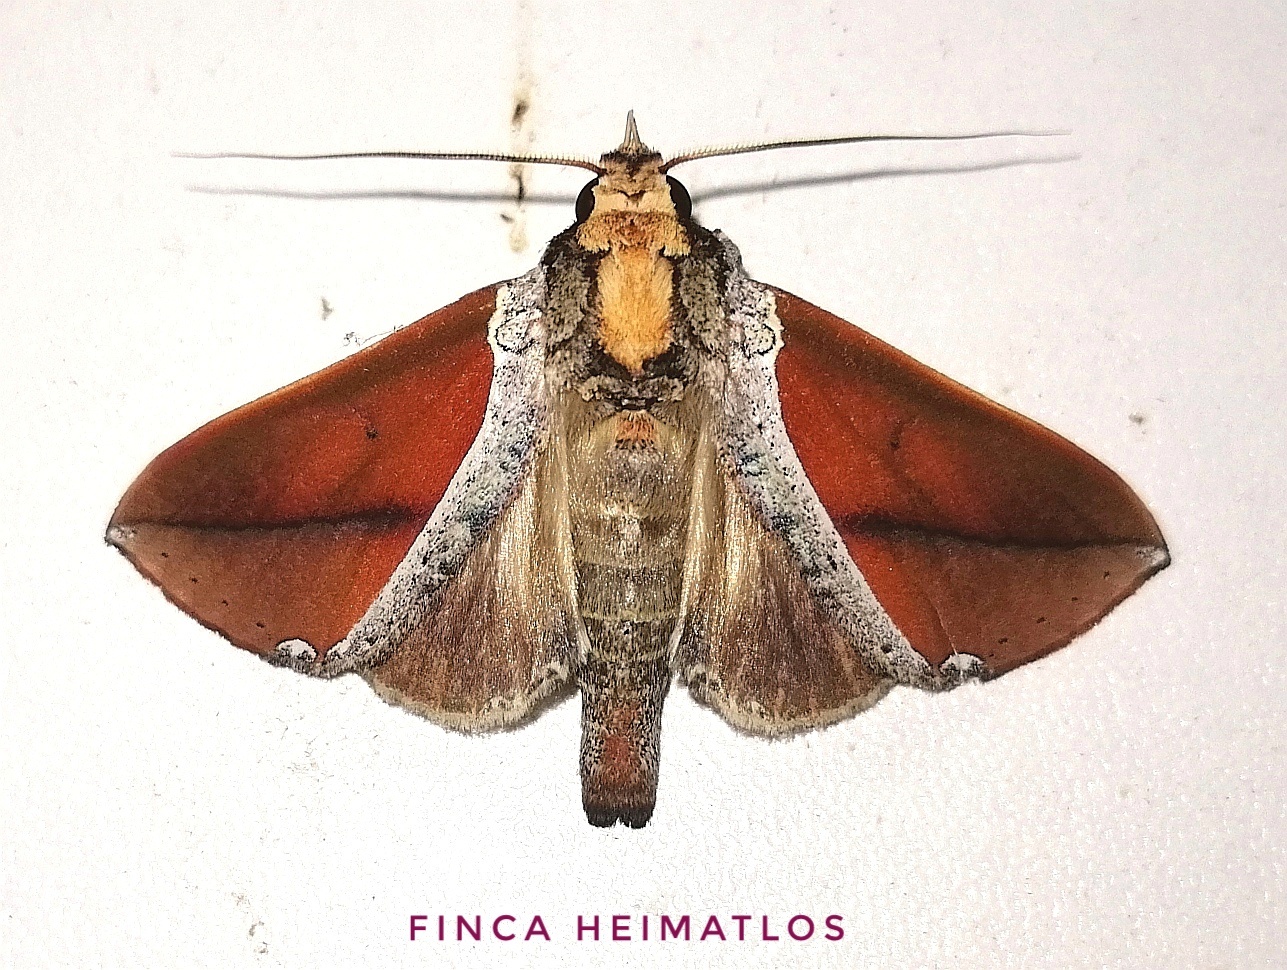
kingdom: Animalia
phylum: Arthropoda
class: Insecta
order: Lepidoptera
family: Notodontidae
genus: Strophocerus
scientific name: Strophocerus thermesia
